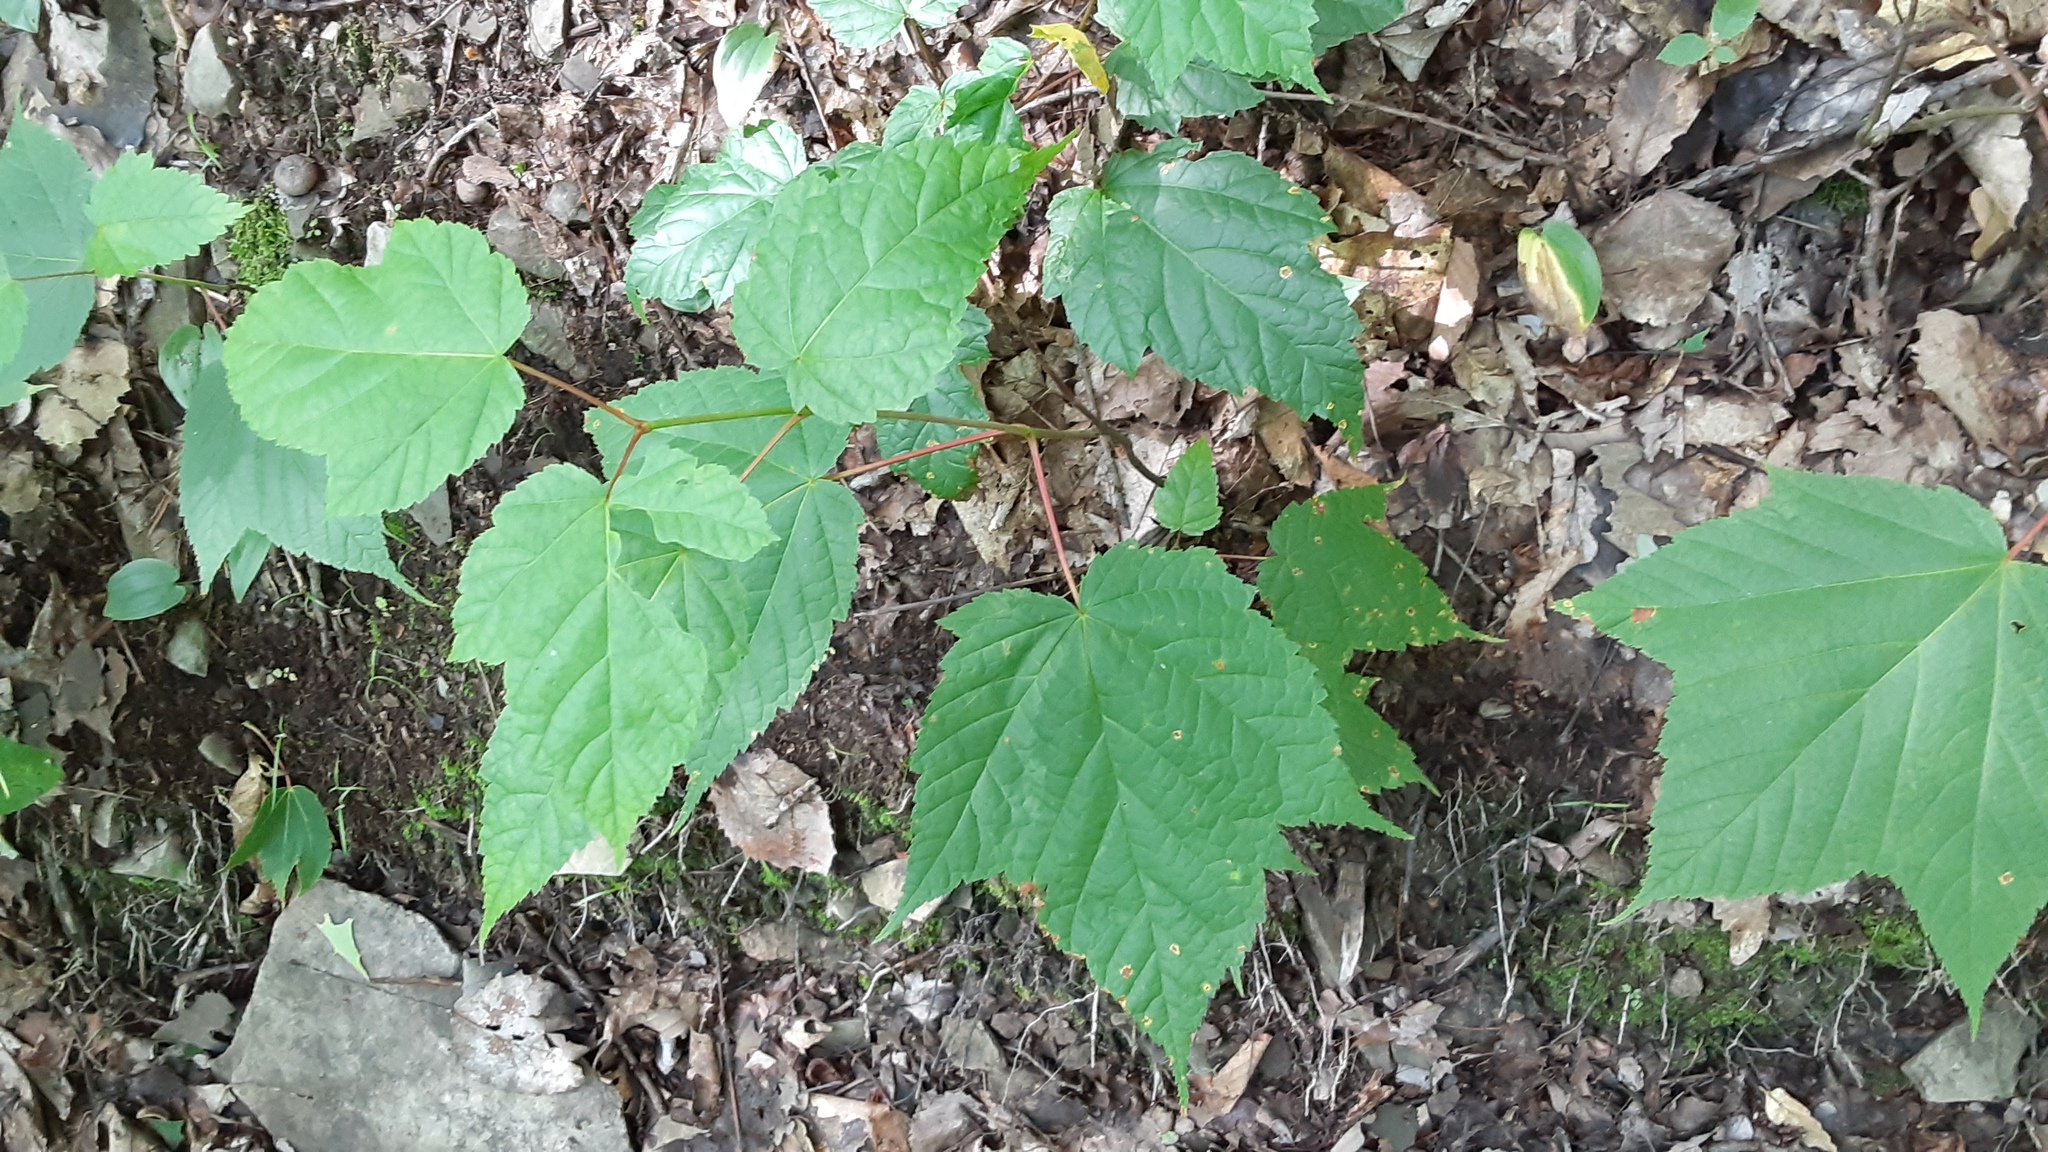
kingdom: Plantae
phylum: Tracheophyta
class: Magnoliopsida
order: Sapindales
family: Sapindaceae
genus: Acer
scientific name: Acer pensylvanicum
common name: Moosewood
